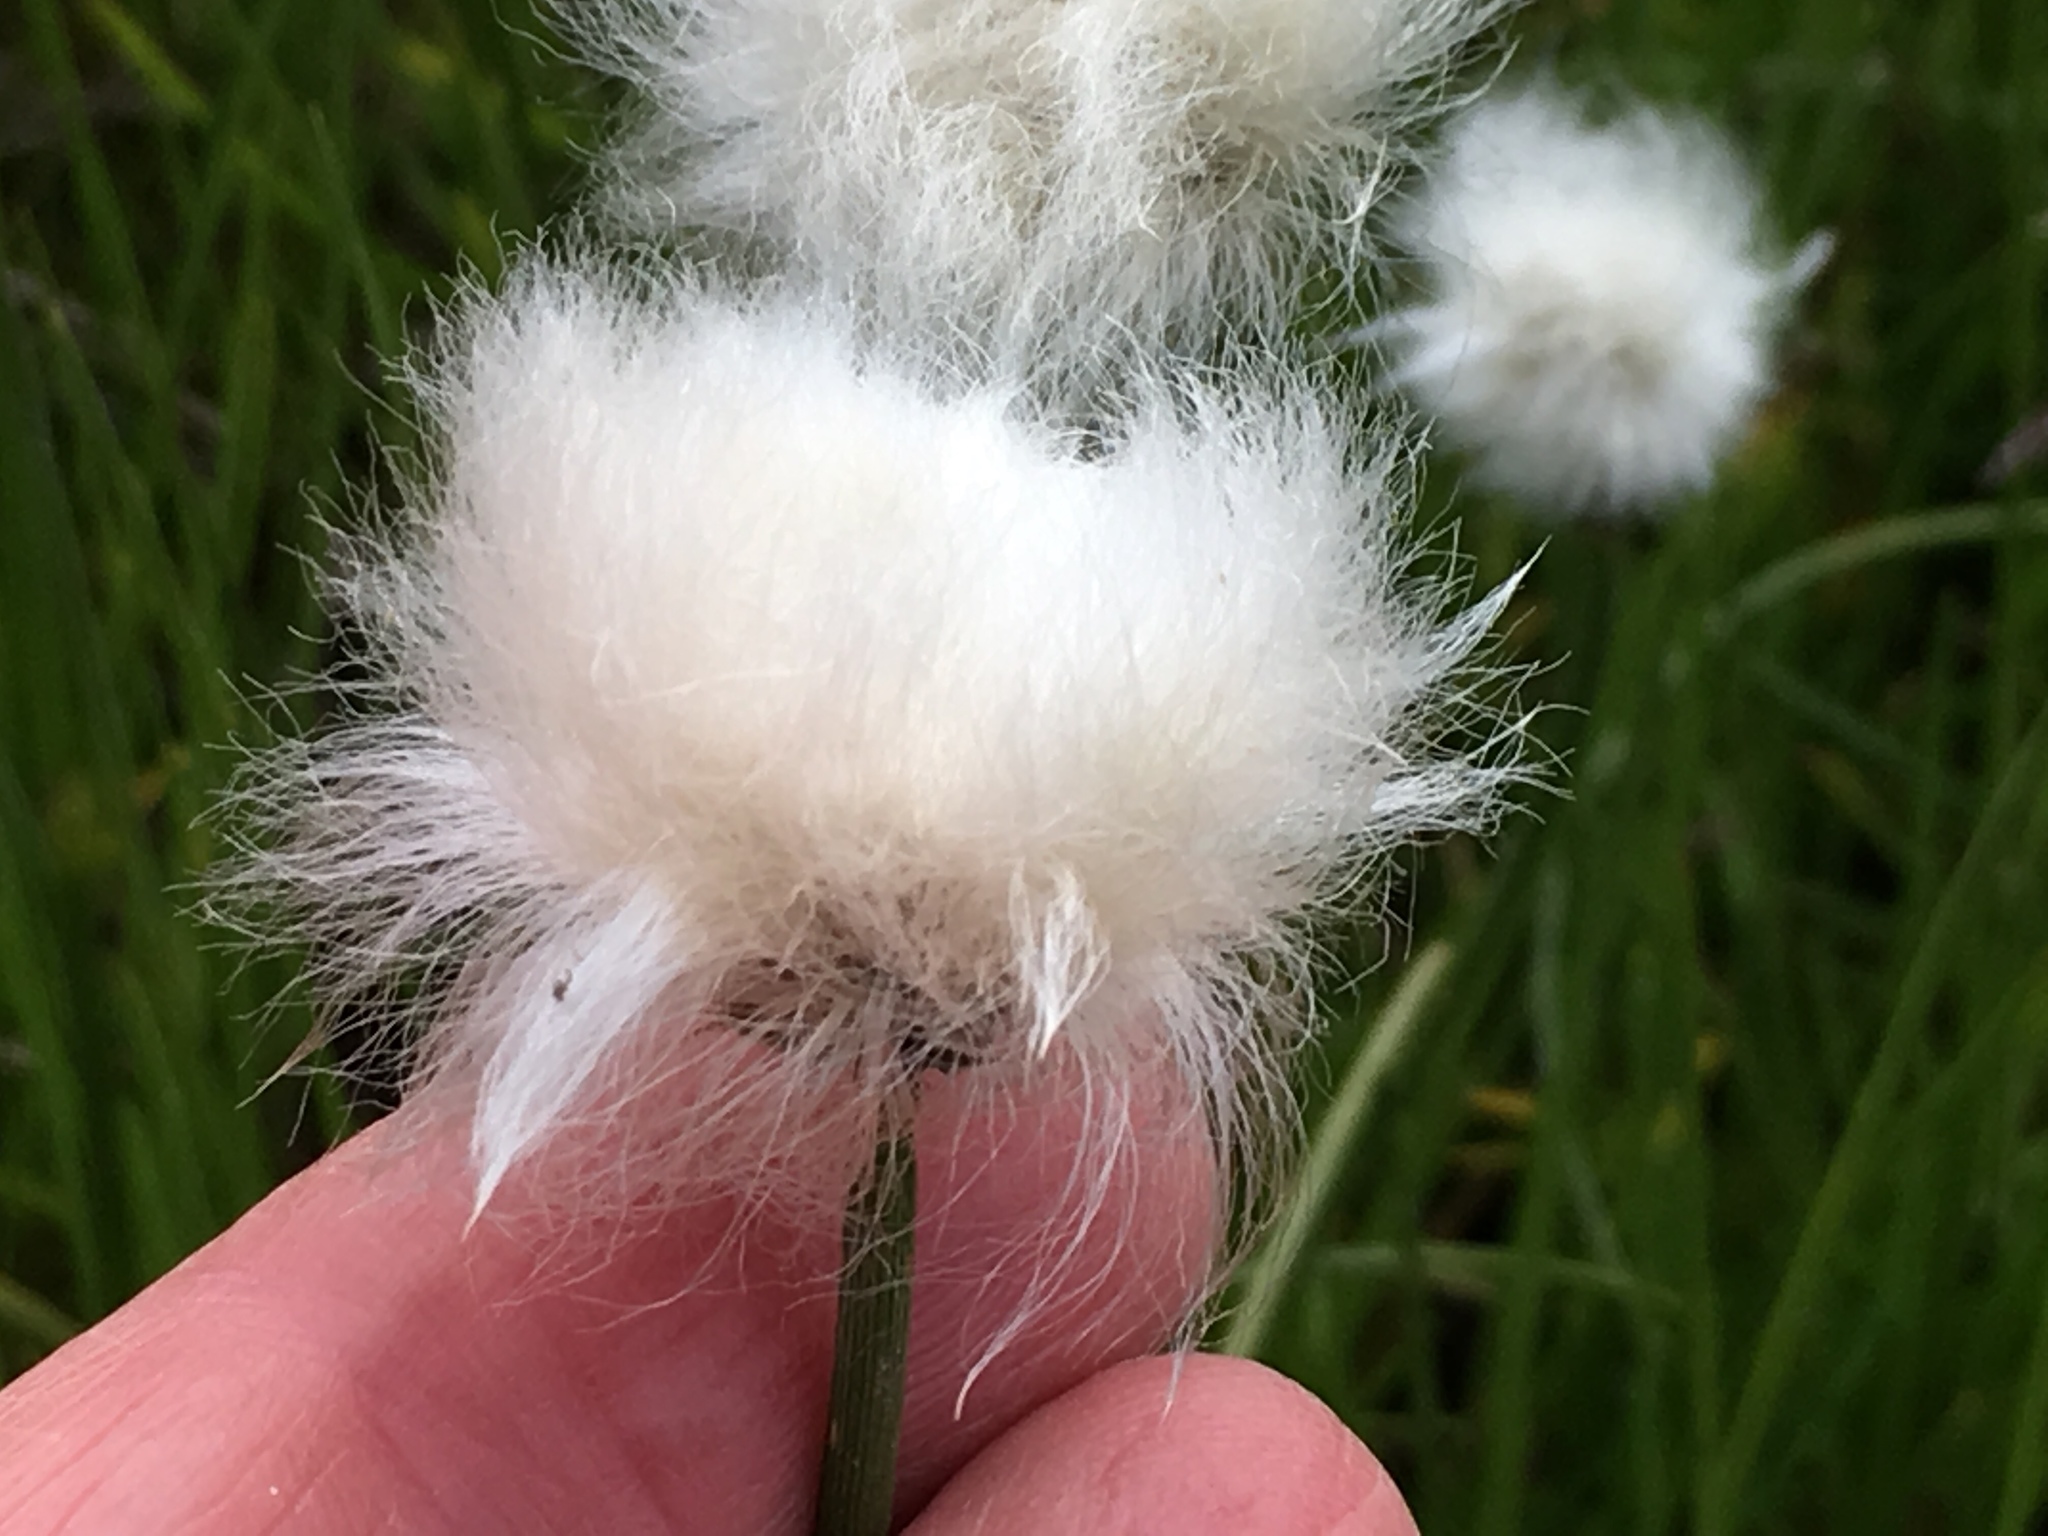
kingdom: Plantae
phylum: Tracheophyta
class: Liliopsida
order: Poales
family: Cyperaceae
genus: Eriophorum
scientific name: Eriophorum scheuchzeri
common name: Scheuchzer's cottongrass
